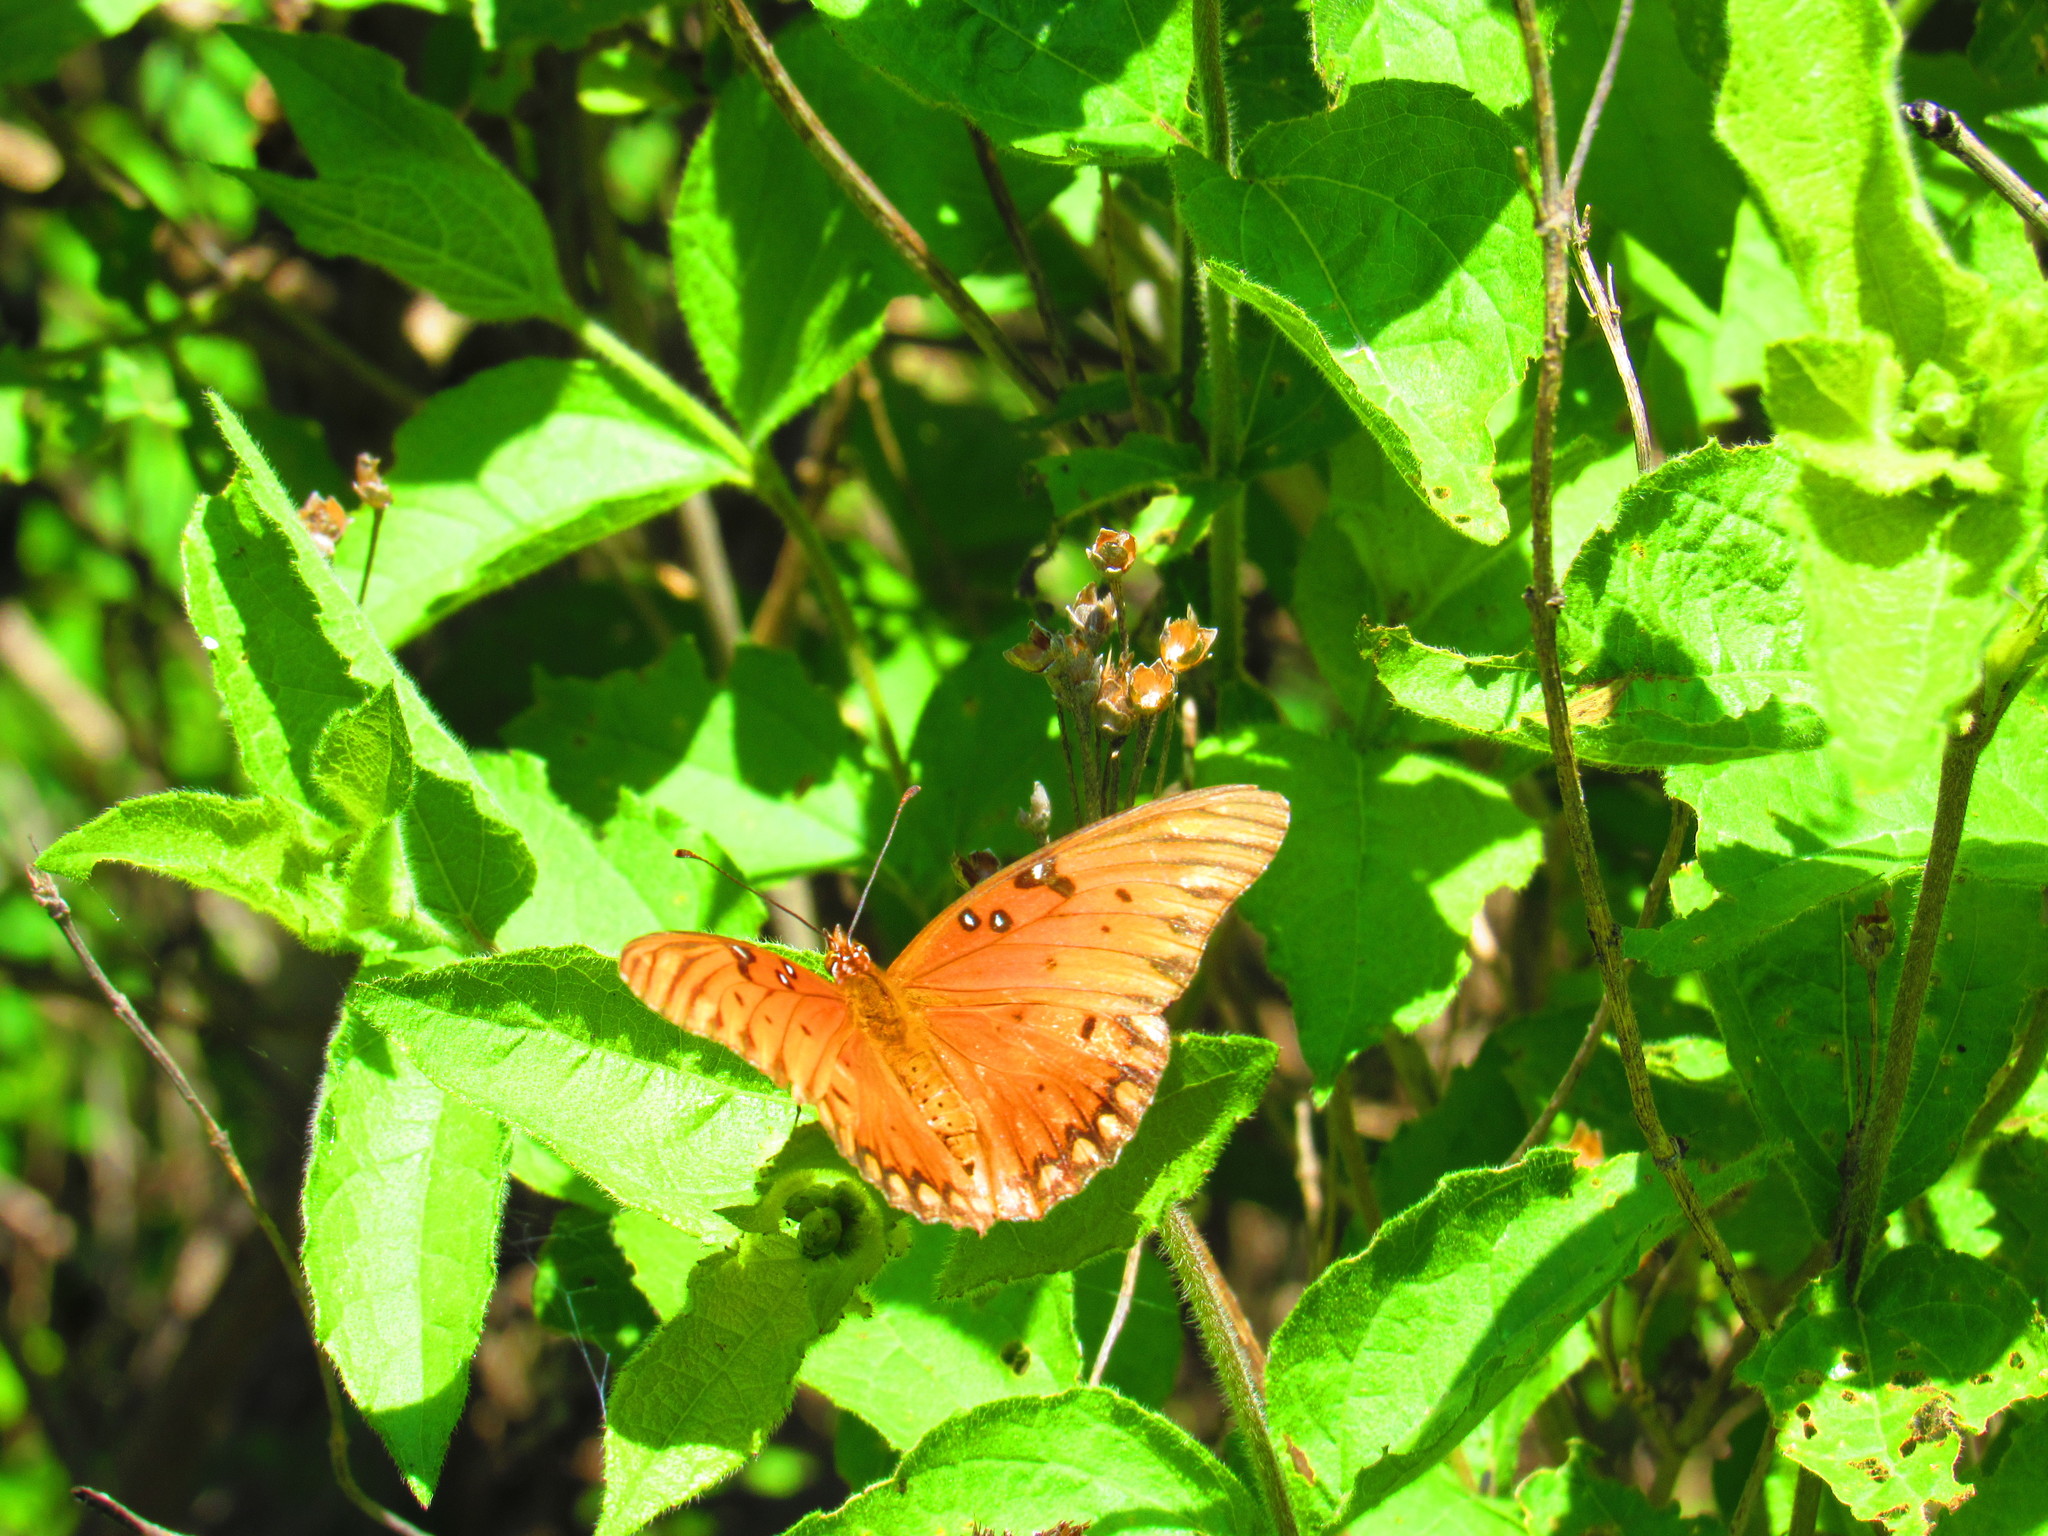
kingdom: Animalia
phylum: Arthropoda
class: Insecta
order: Lepidoptera
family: Nymphalidae
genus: Dione
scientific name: Dione vanillae
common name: Gulf fritillary
